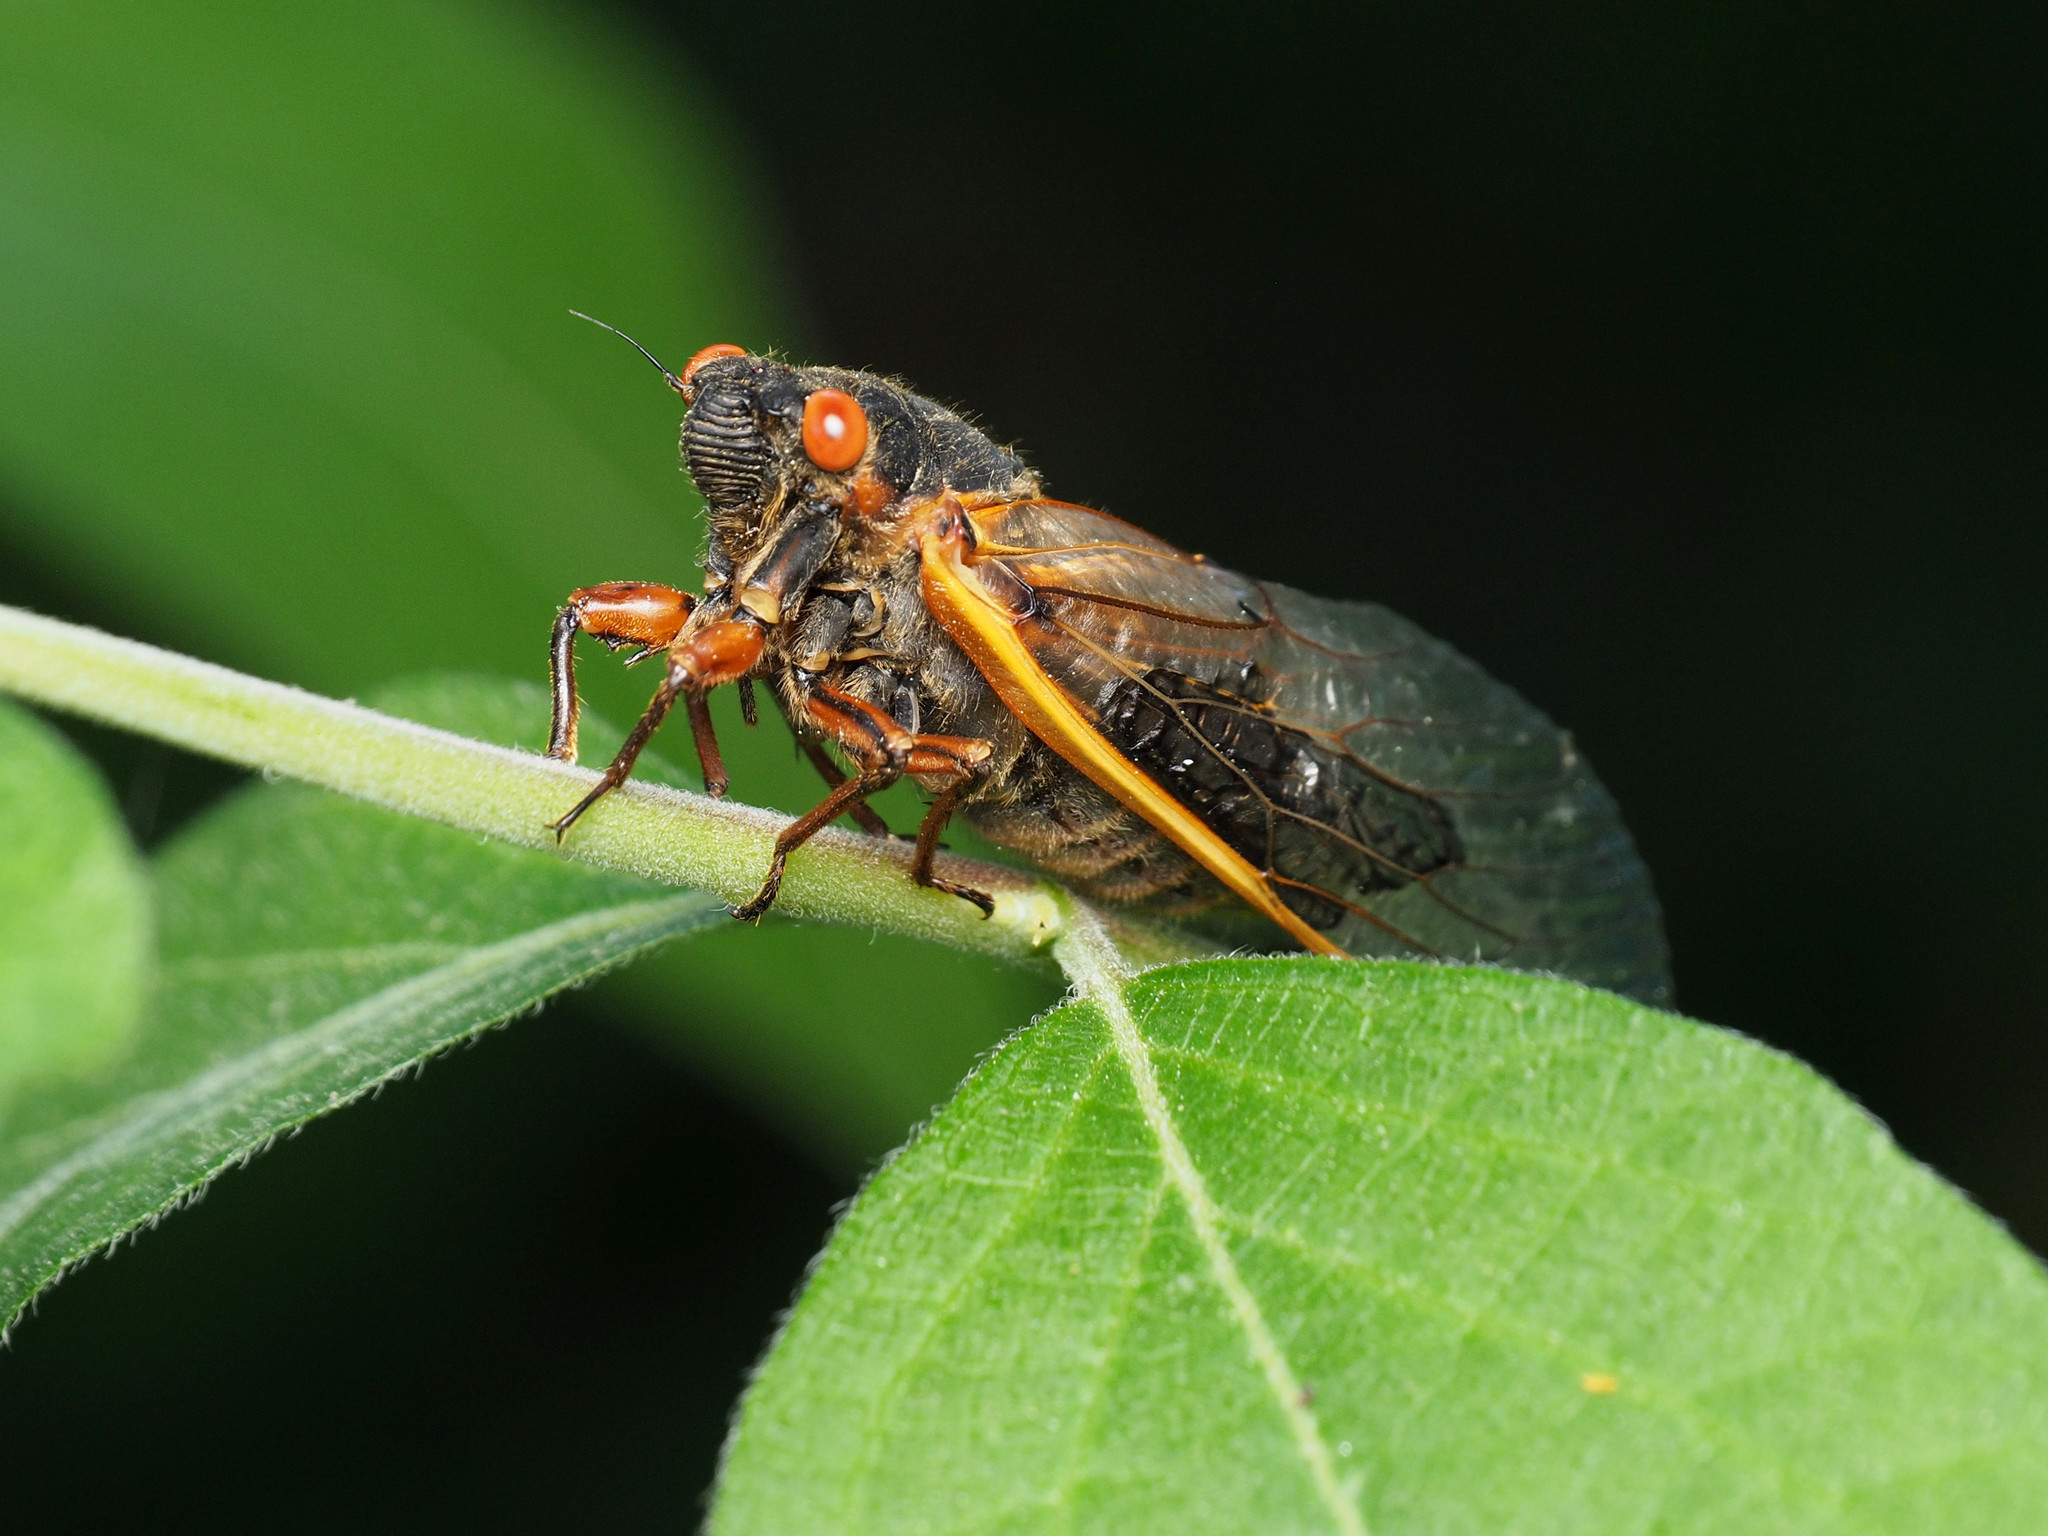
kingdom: Animalia
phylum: Arthropoda
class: Insecta
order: Hemiptera
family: Cicadidae
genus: Magicicada
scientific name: Magicicada septendecim
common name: Periodical cicada
